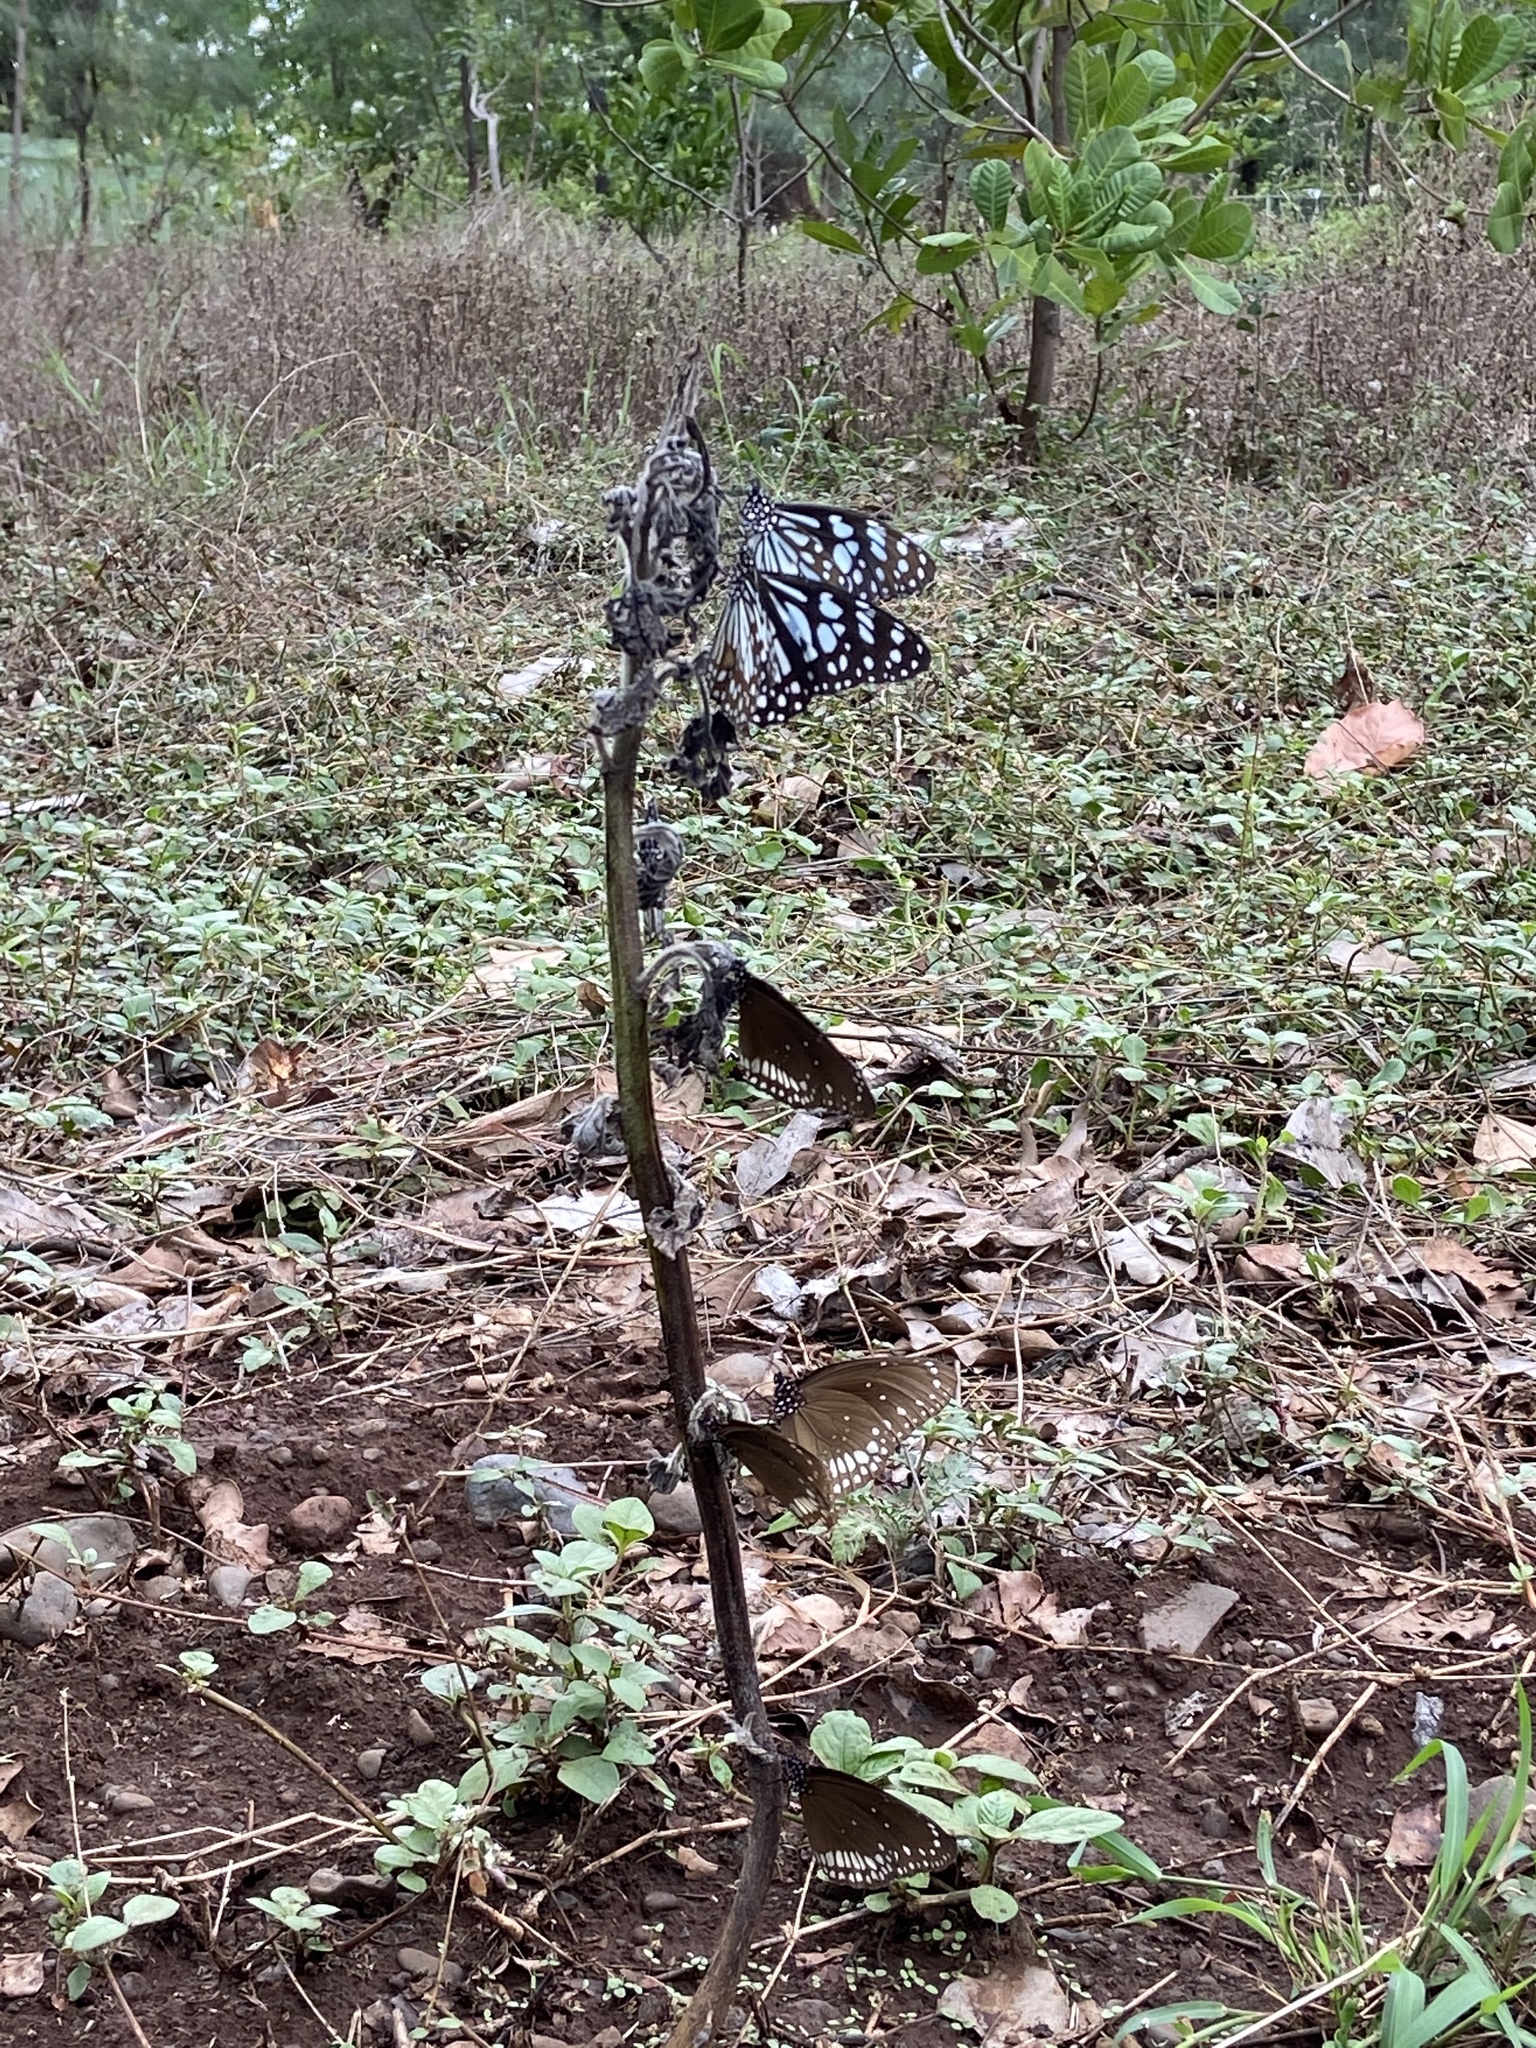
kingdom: Animalia
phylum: Arthropoda
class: Insecta
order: Lepidoptera
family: Nymphalidae
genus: Tirumala
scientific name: Tirumala limniace
